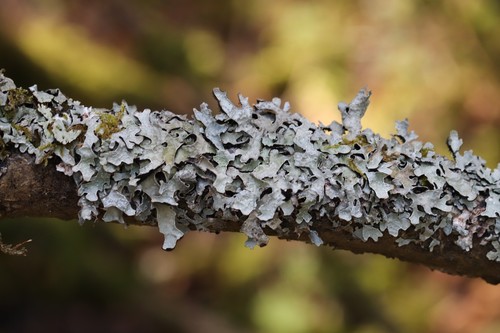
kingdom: Fungi
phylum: Ascomycota
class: Lecanoromycetes
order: Lecanorales
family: Parmeliaceae
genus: Parmelia
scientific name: Parmelia
